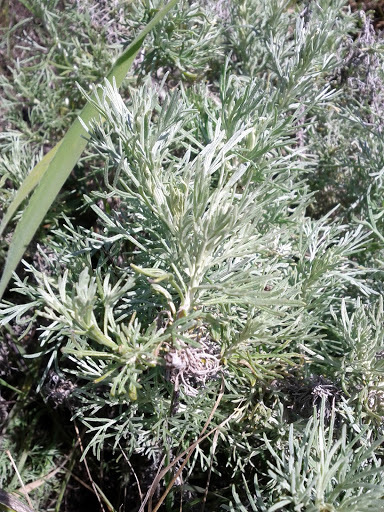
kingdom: Plantae
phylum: Tracheophyta
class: Magnoliopsida
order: Asterales
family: Asteraceae
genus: Artemisia
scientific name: Artemisia californica
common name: California sagebrush
